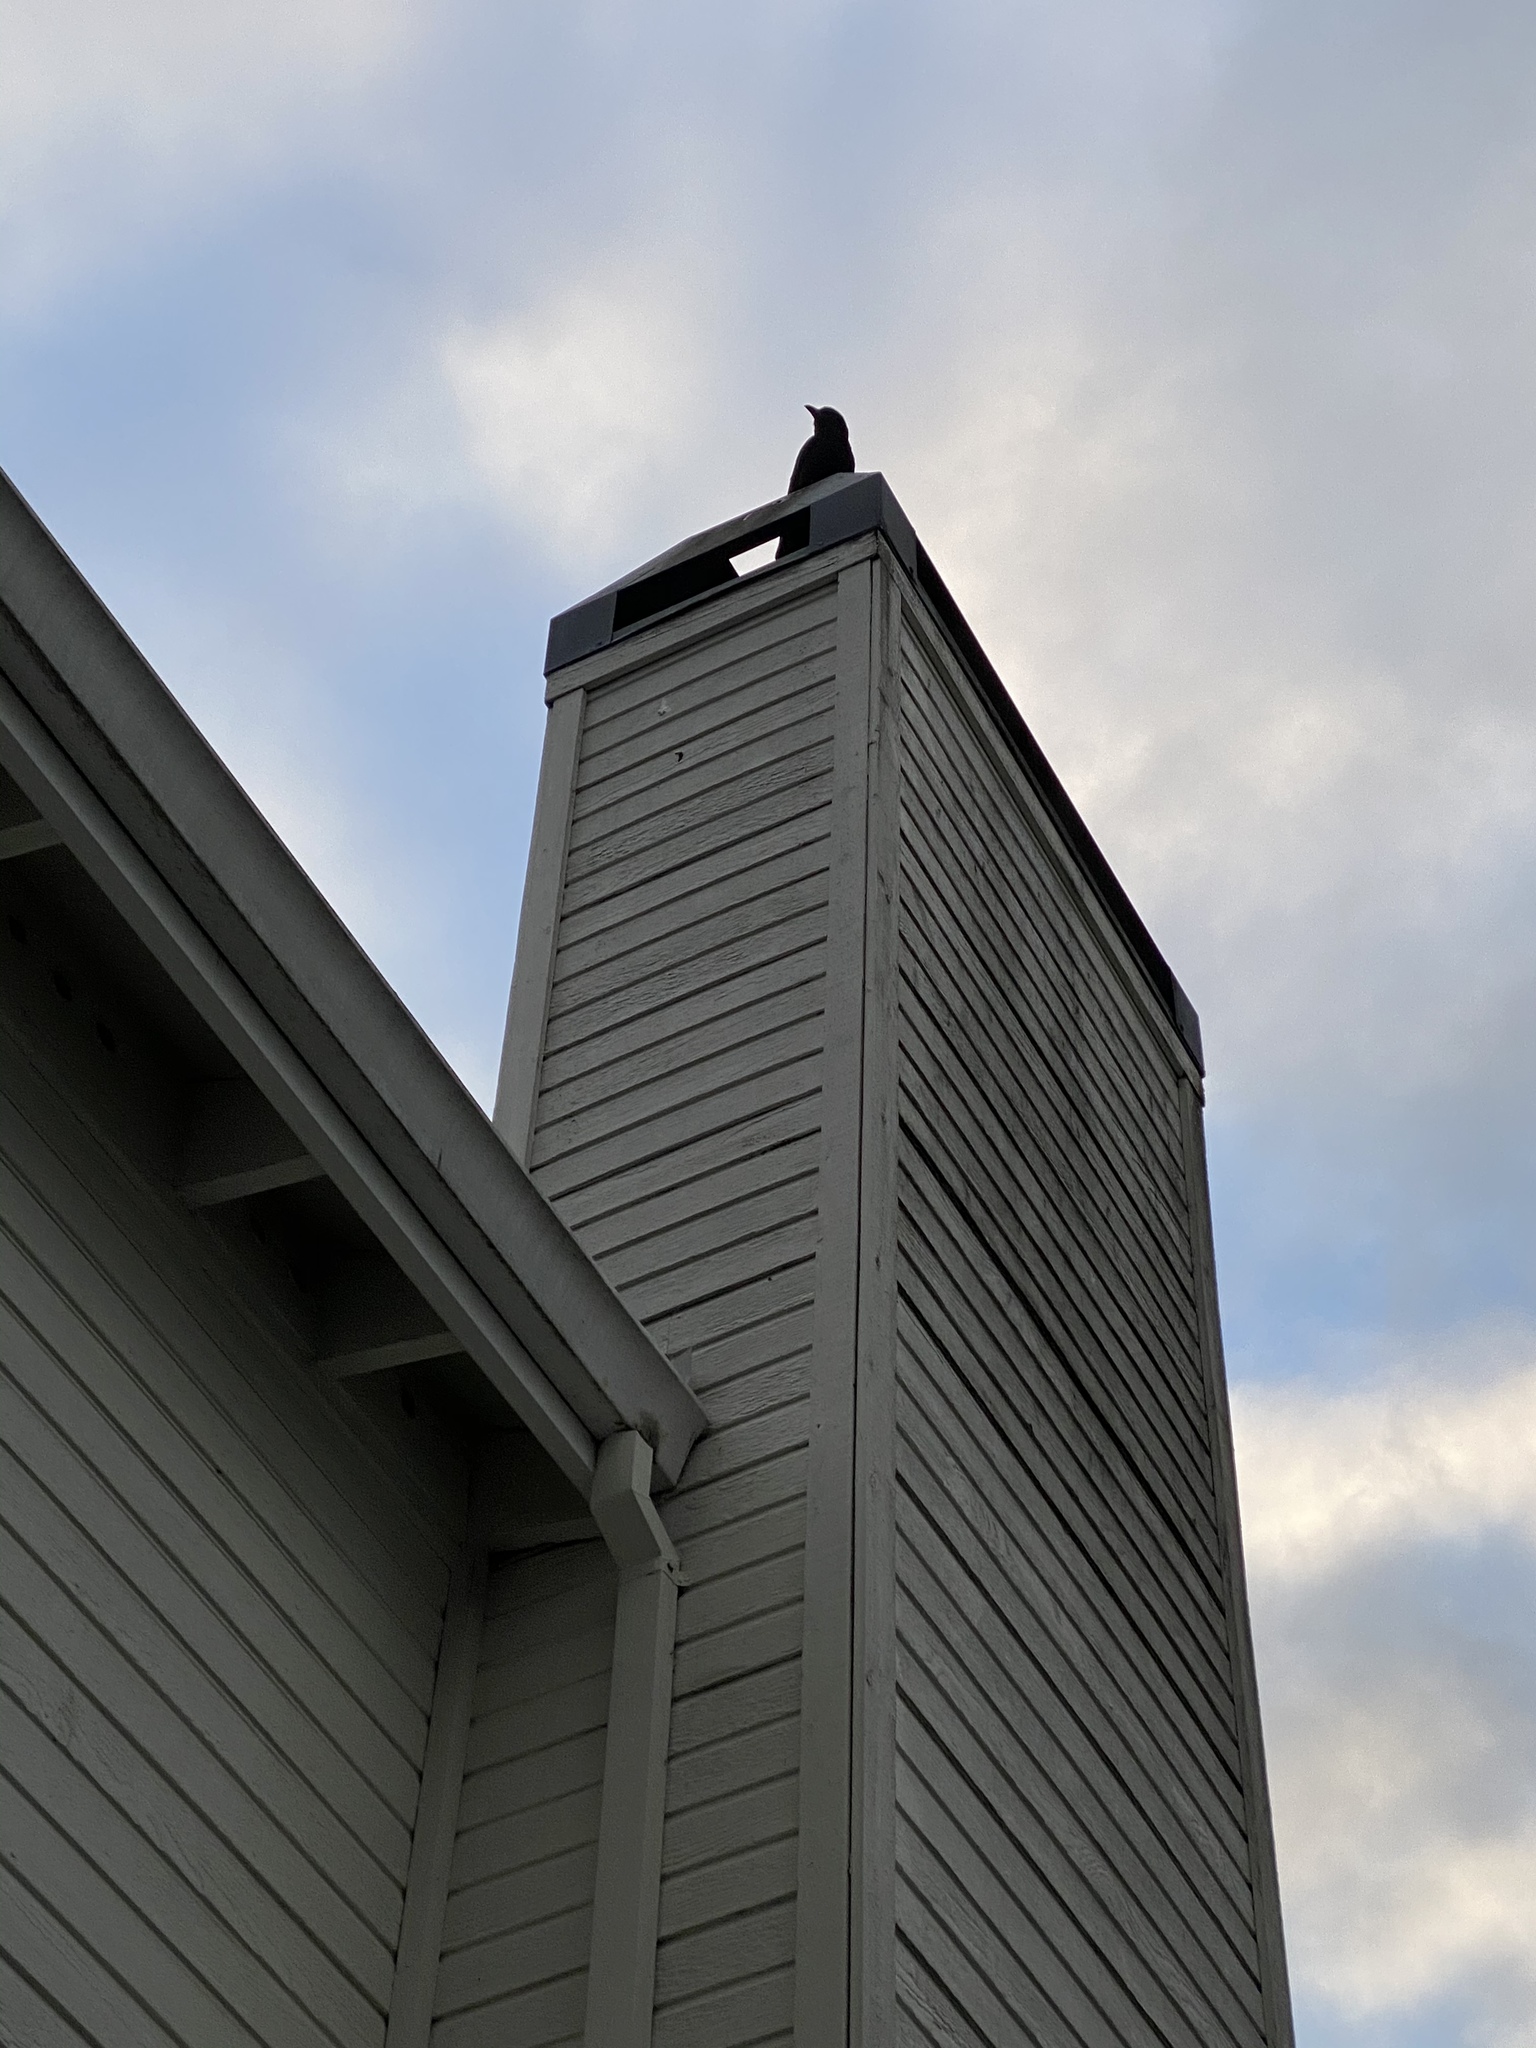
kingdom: Animalia
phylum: Chordata
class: Aves
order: Passeriformes
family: Corvidae
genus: Corvus
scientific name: Corvus brachyrhynchos
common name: American crow
